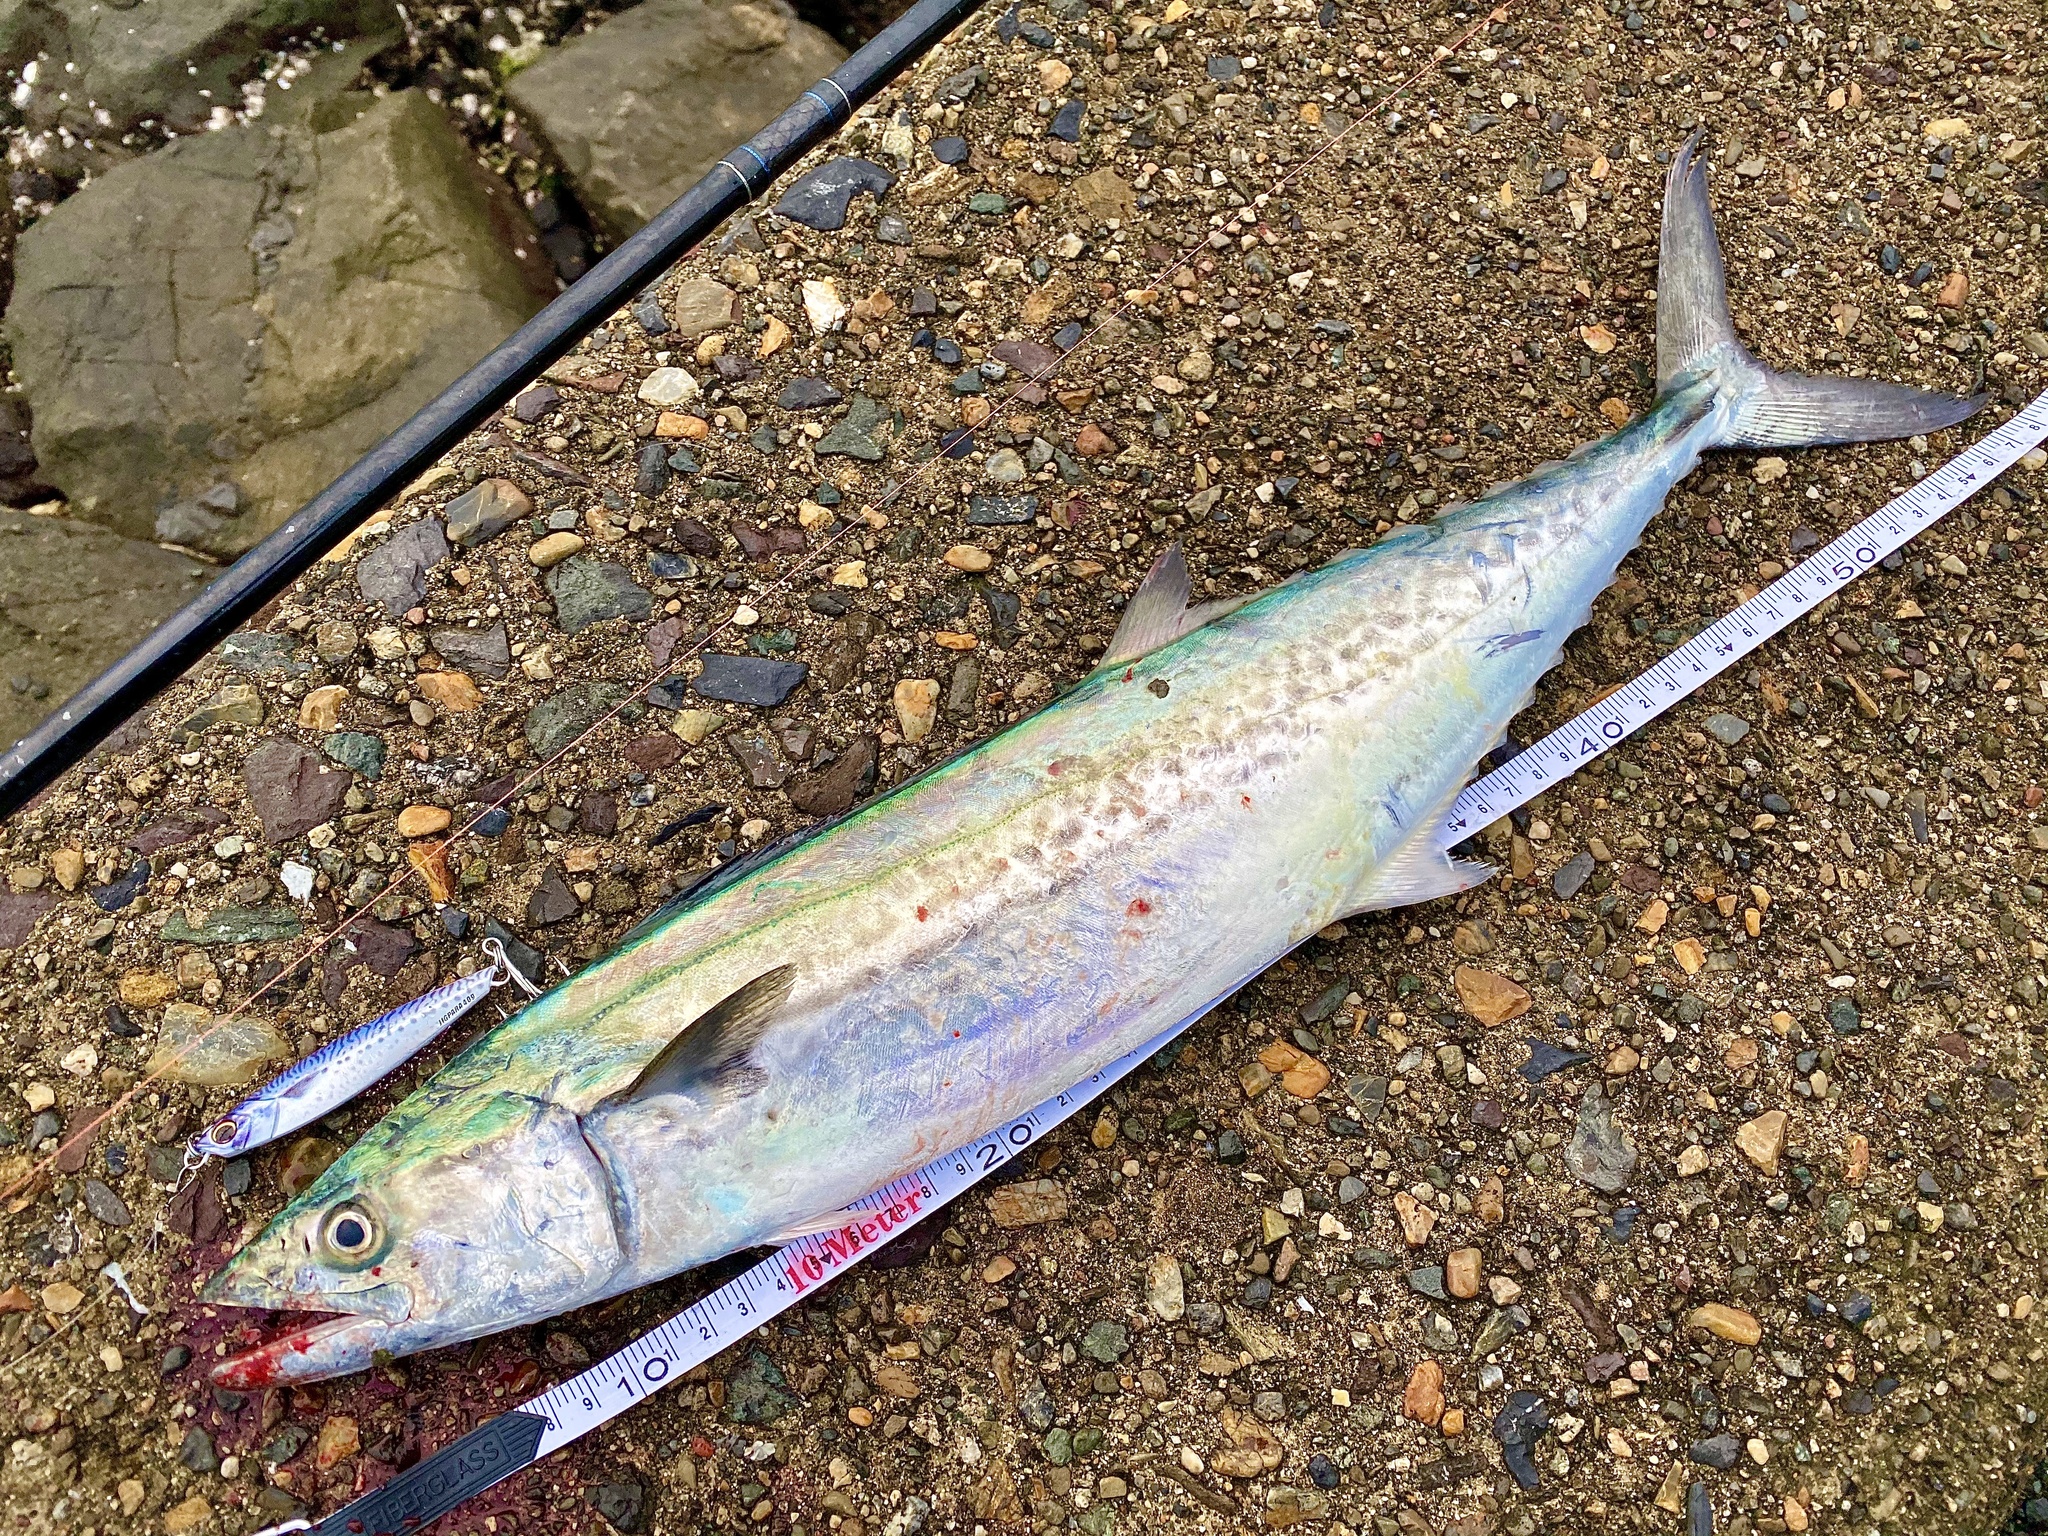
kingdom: Animalia
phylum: Chordata
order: Perciformes
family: Scombridae
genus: Scomberomorus
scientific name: Scomberomorus niphonius
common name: Japanese spanish mackerel
